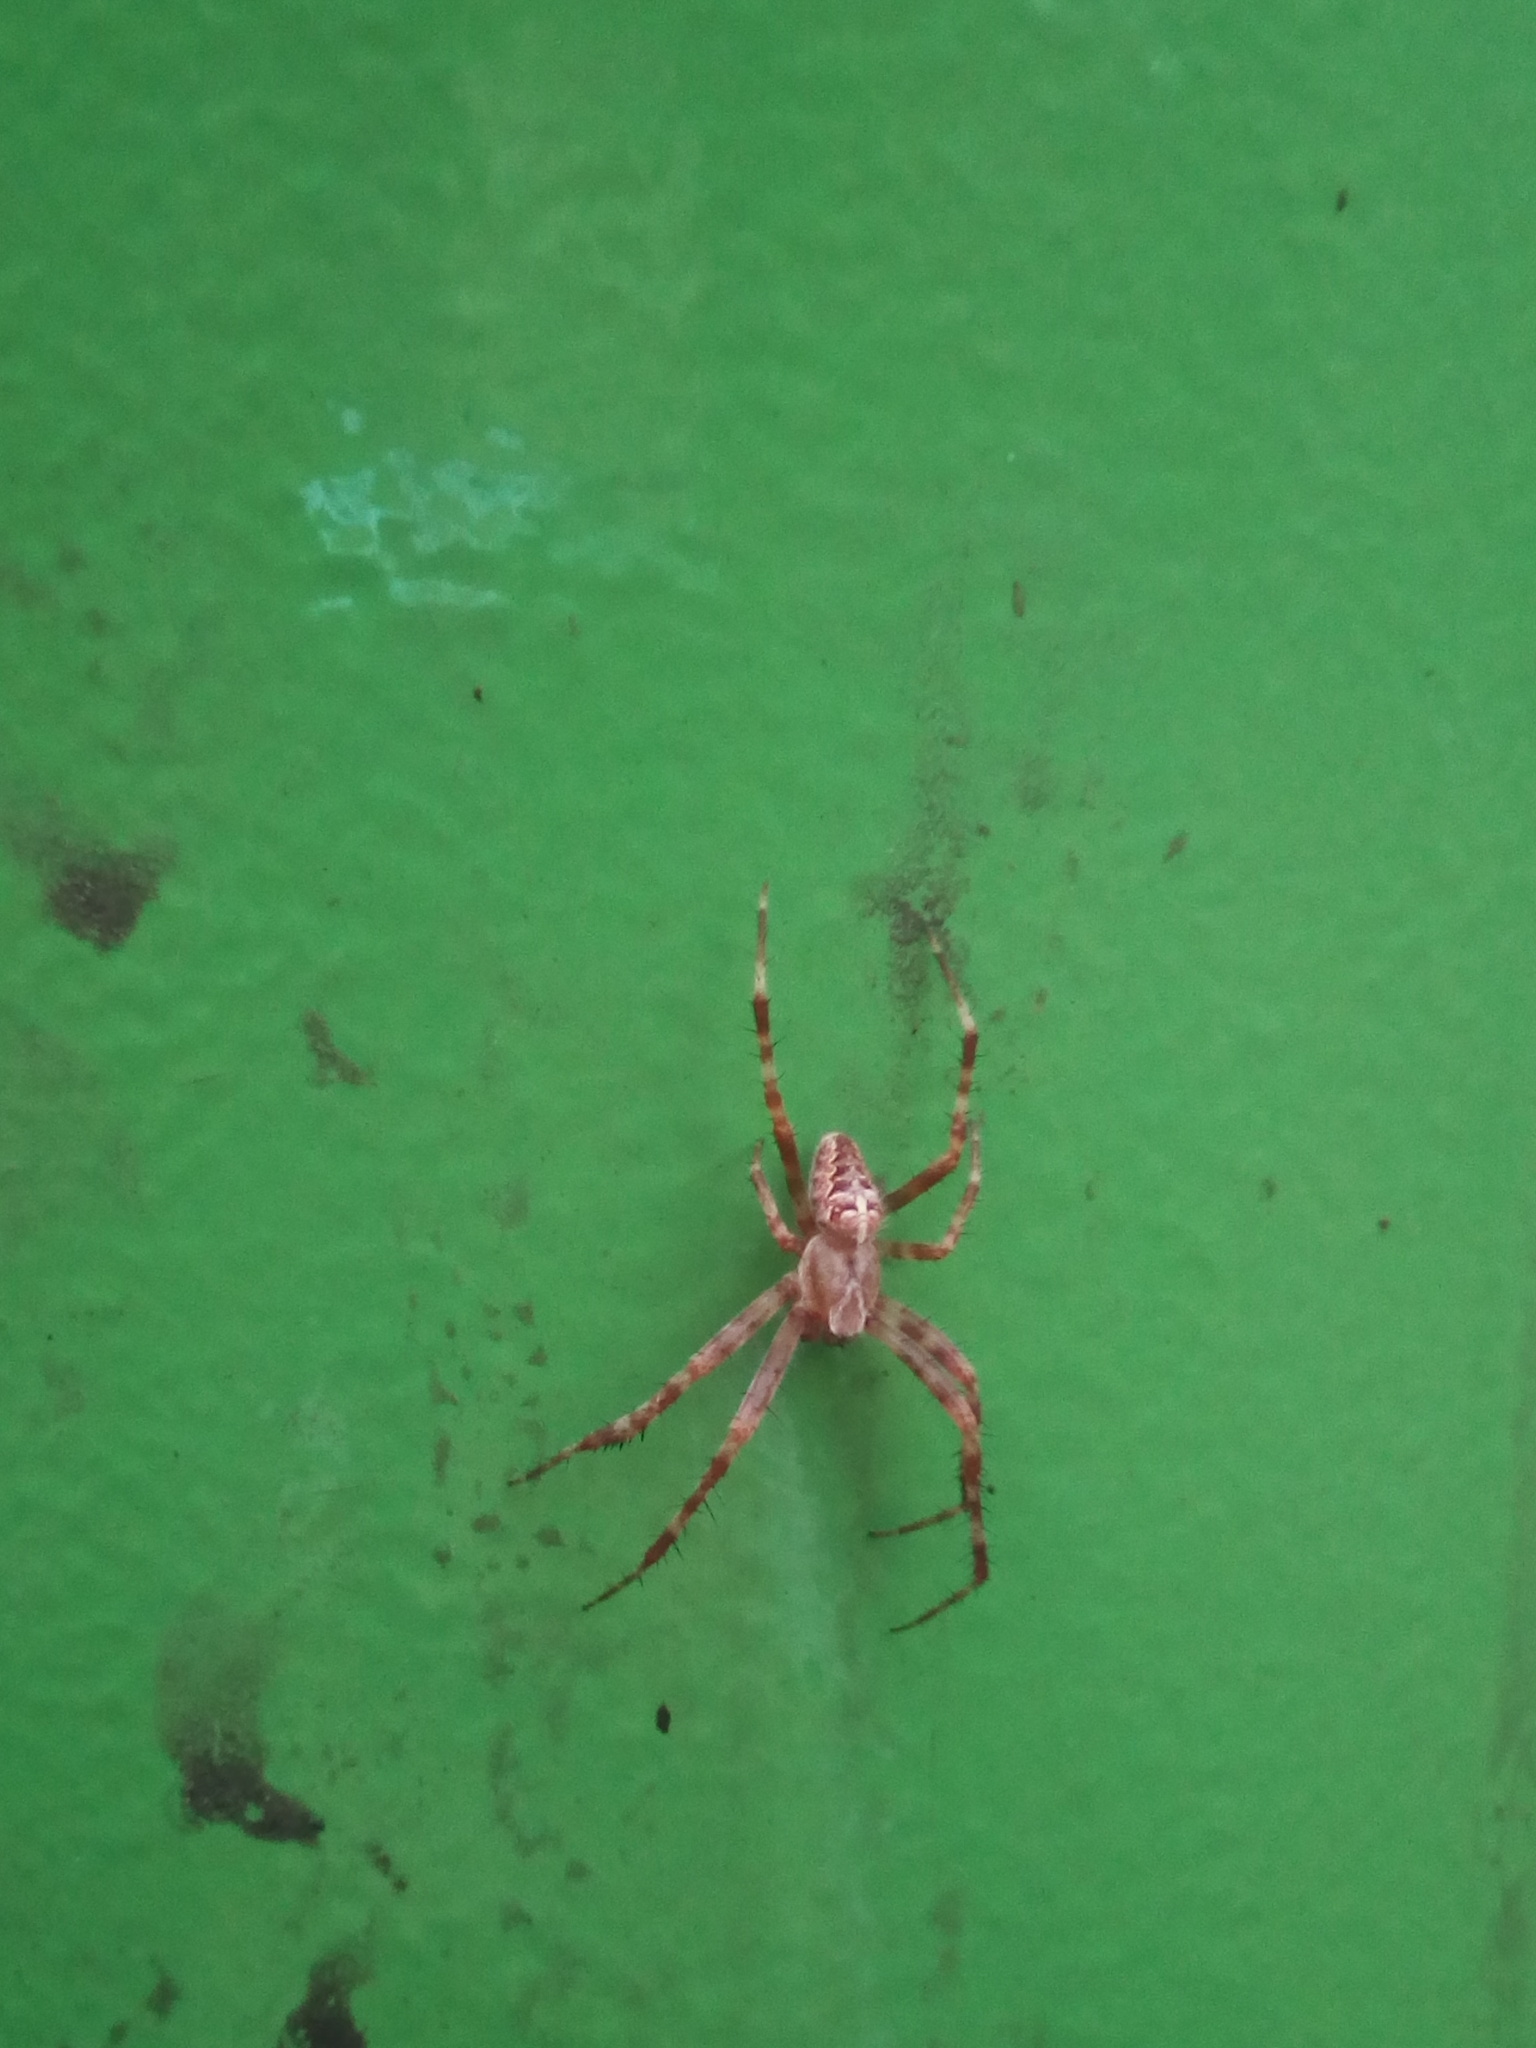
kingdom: Animalia
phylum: Arthropoda
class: Arachnida
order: Araneae
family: Araneidae
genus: Araneus
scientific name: Araneus diadematus
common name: Cross orbweaver
